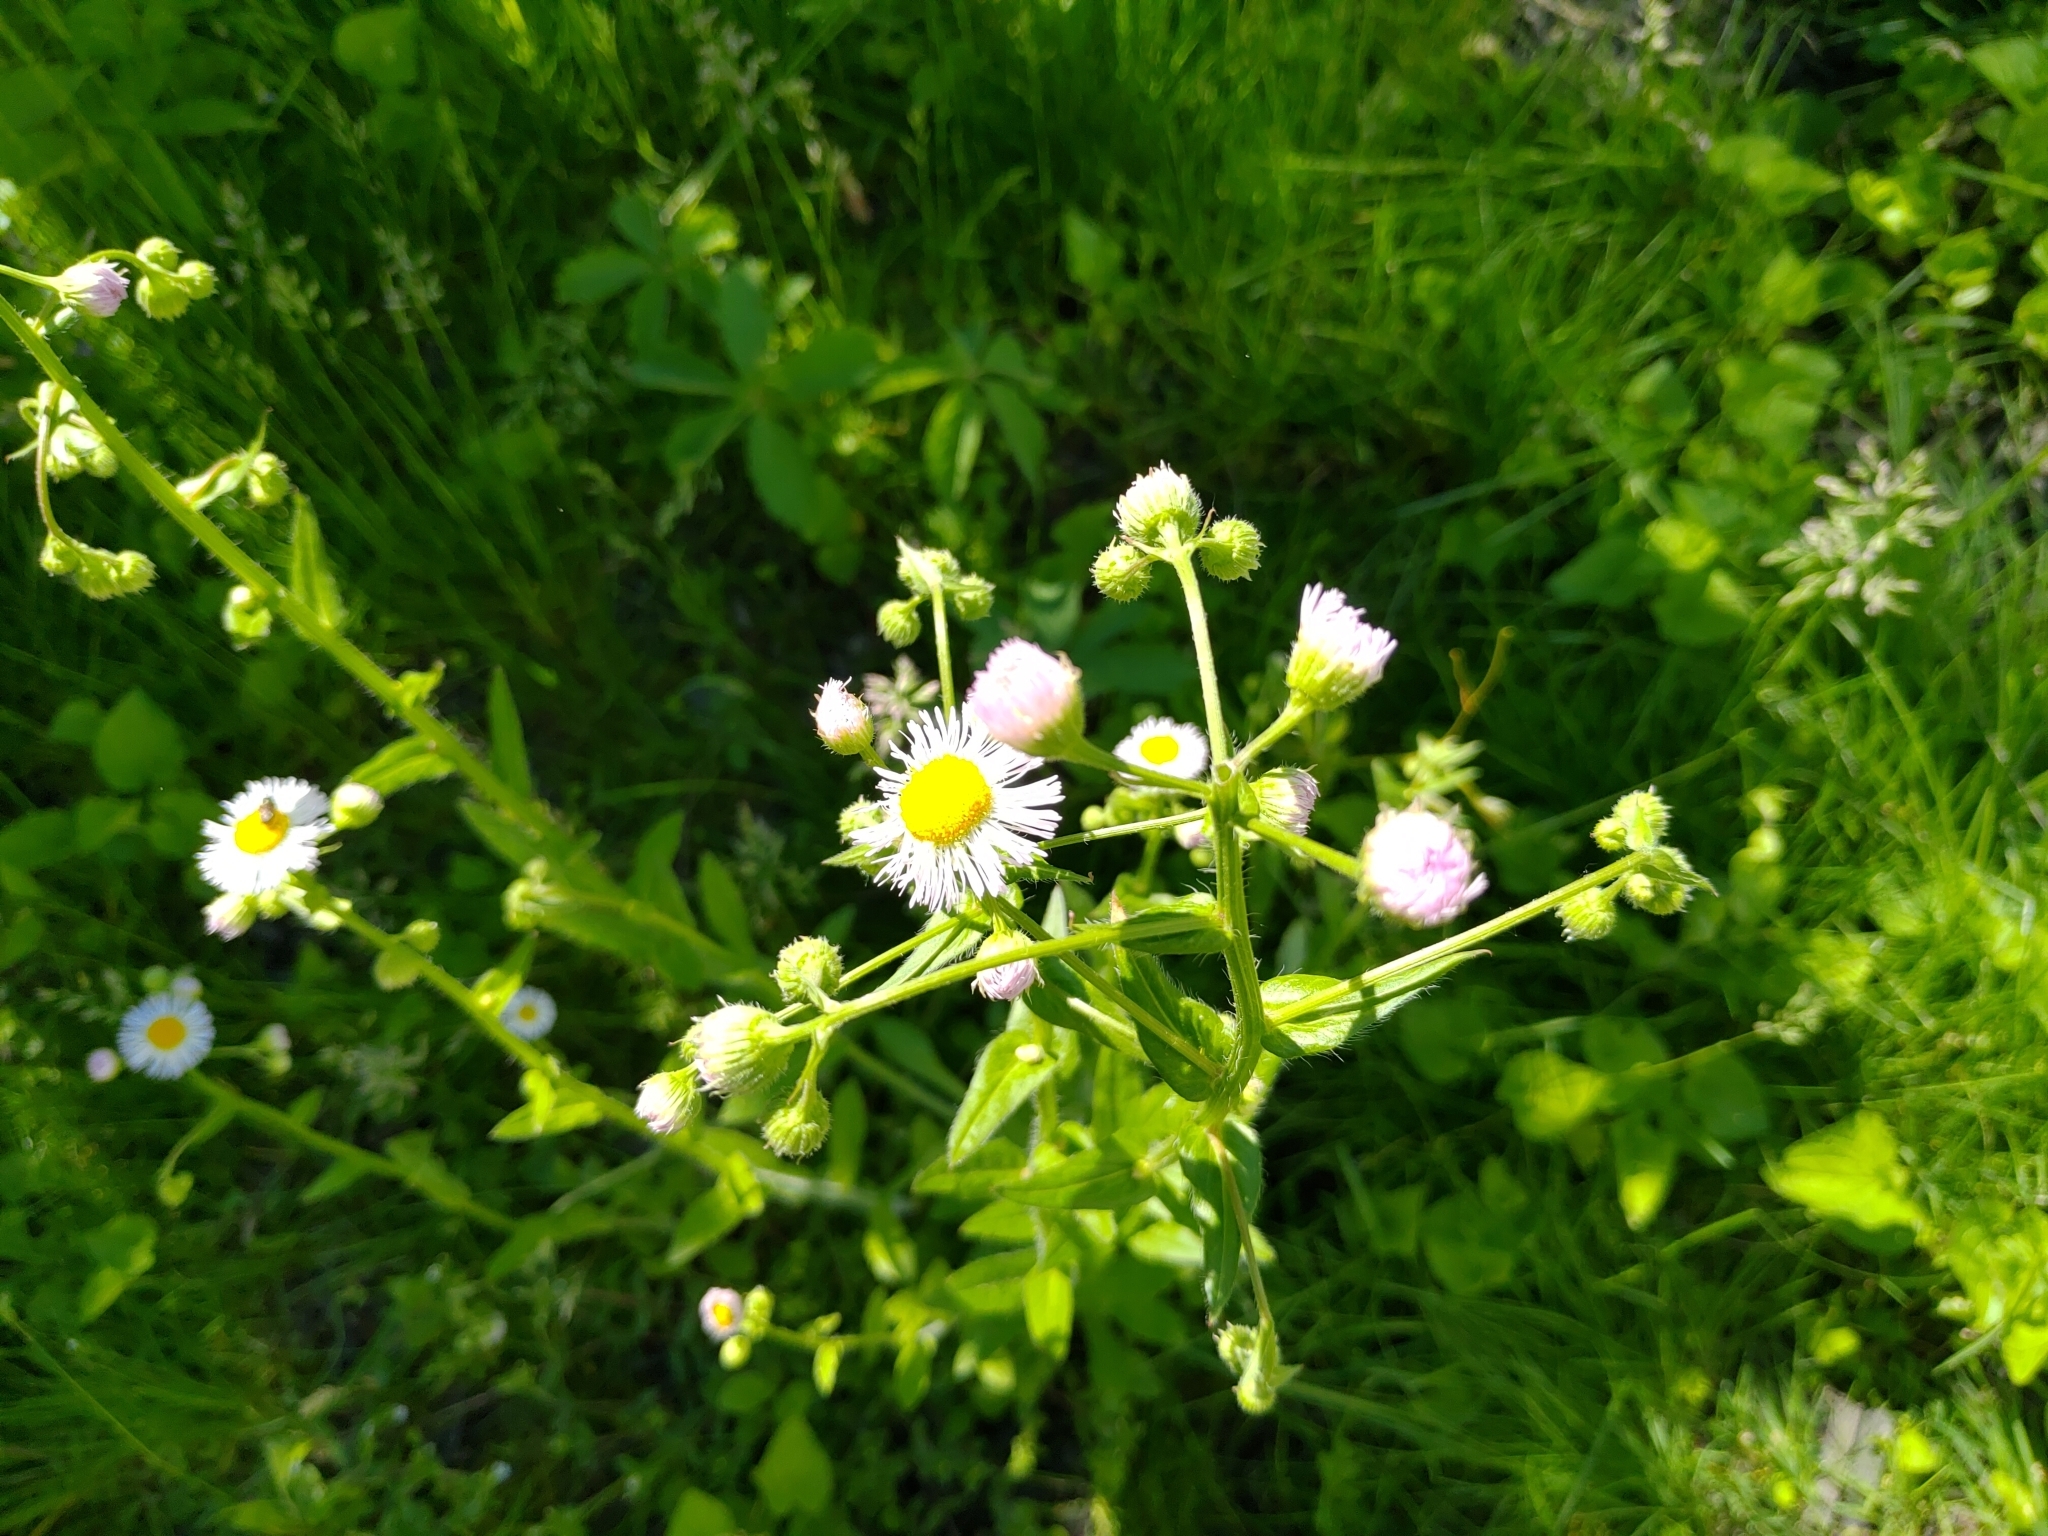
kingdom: Plantae
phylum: Tracheophyta
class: Magnoliopsida
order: Asterales
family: Asteraceae
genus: Erigeron
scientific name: Erigeron philadelphicus
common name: Robin's-plantain
